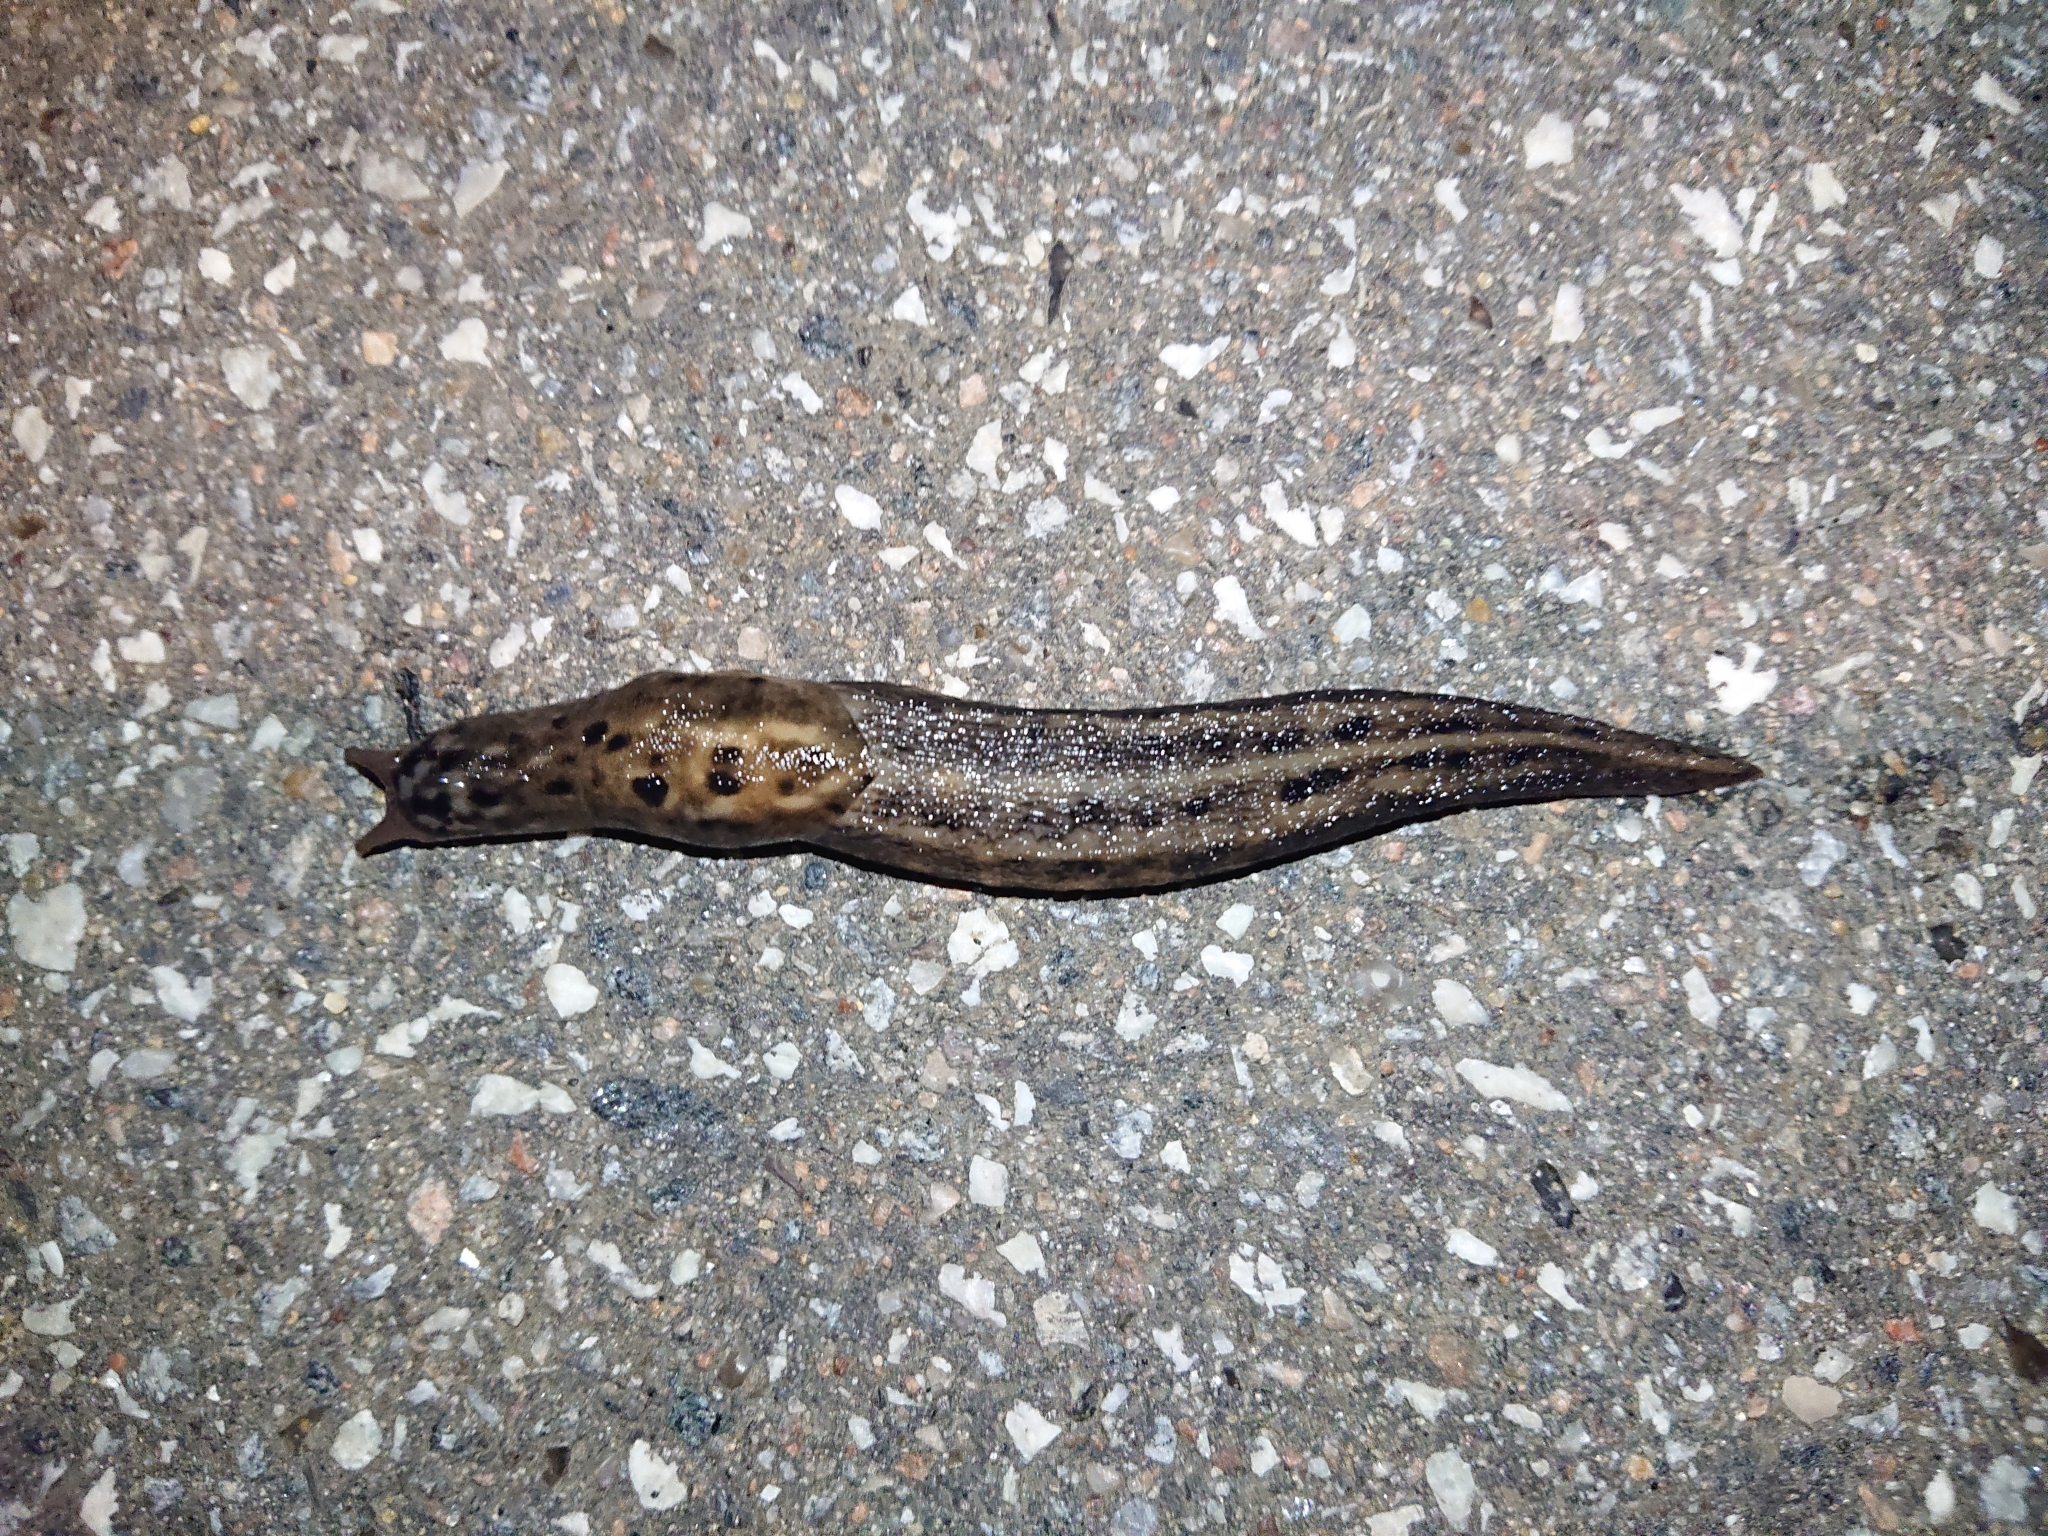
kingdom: Animalia
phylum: Mollusca
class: Gastropoda
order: Stylommatophora
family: Limacidae
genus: Limax
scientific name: Limax maximus
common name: Great grey slug
